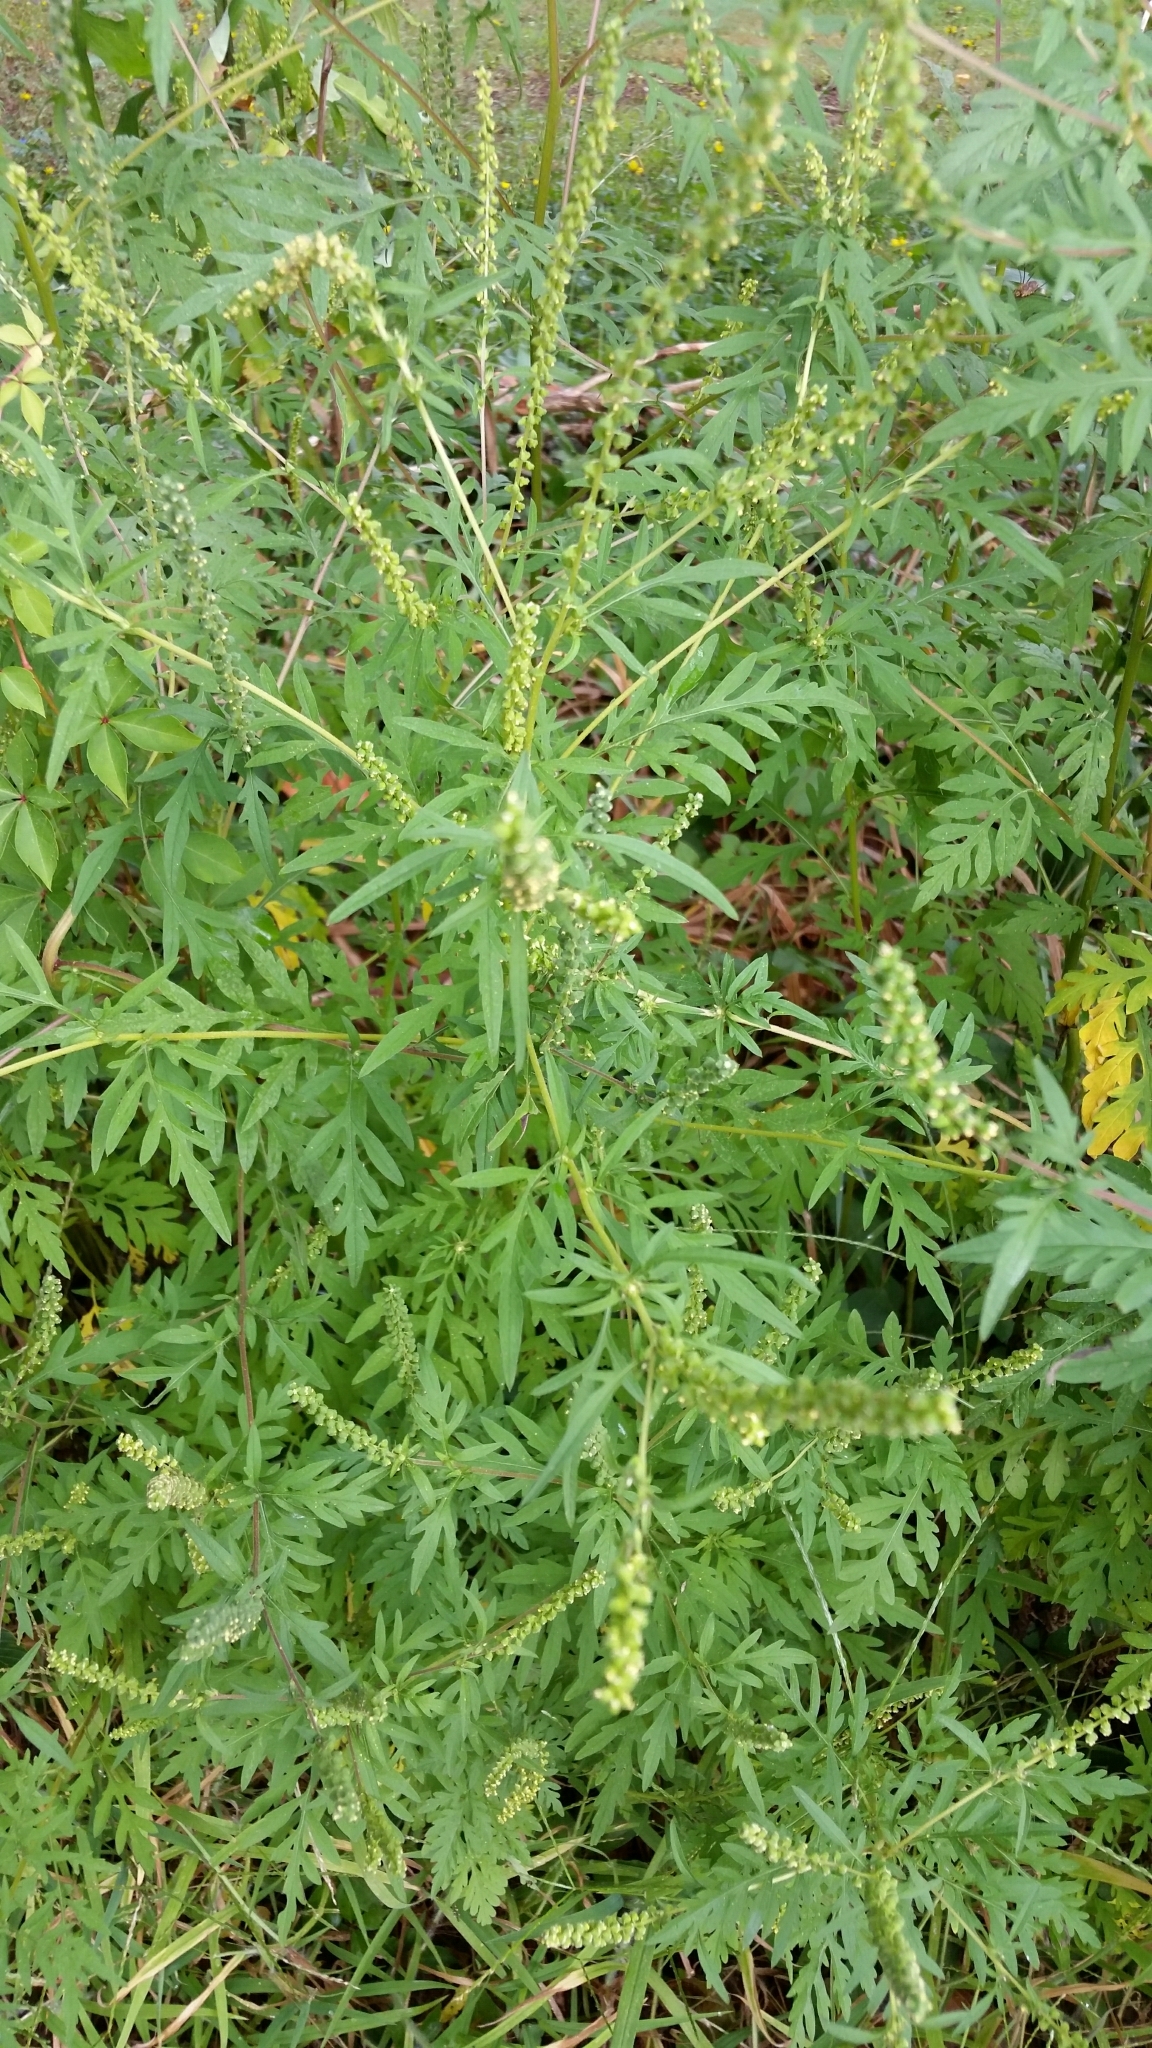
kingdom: Plantae
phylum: Tracheophyta
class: Magnoliopsida
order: Asterales
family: Asteraceae
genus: Ambrosia
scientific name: Ambrosia artemisiifolia
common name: Annual ragweed
